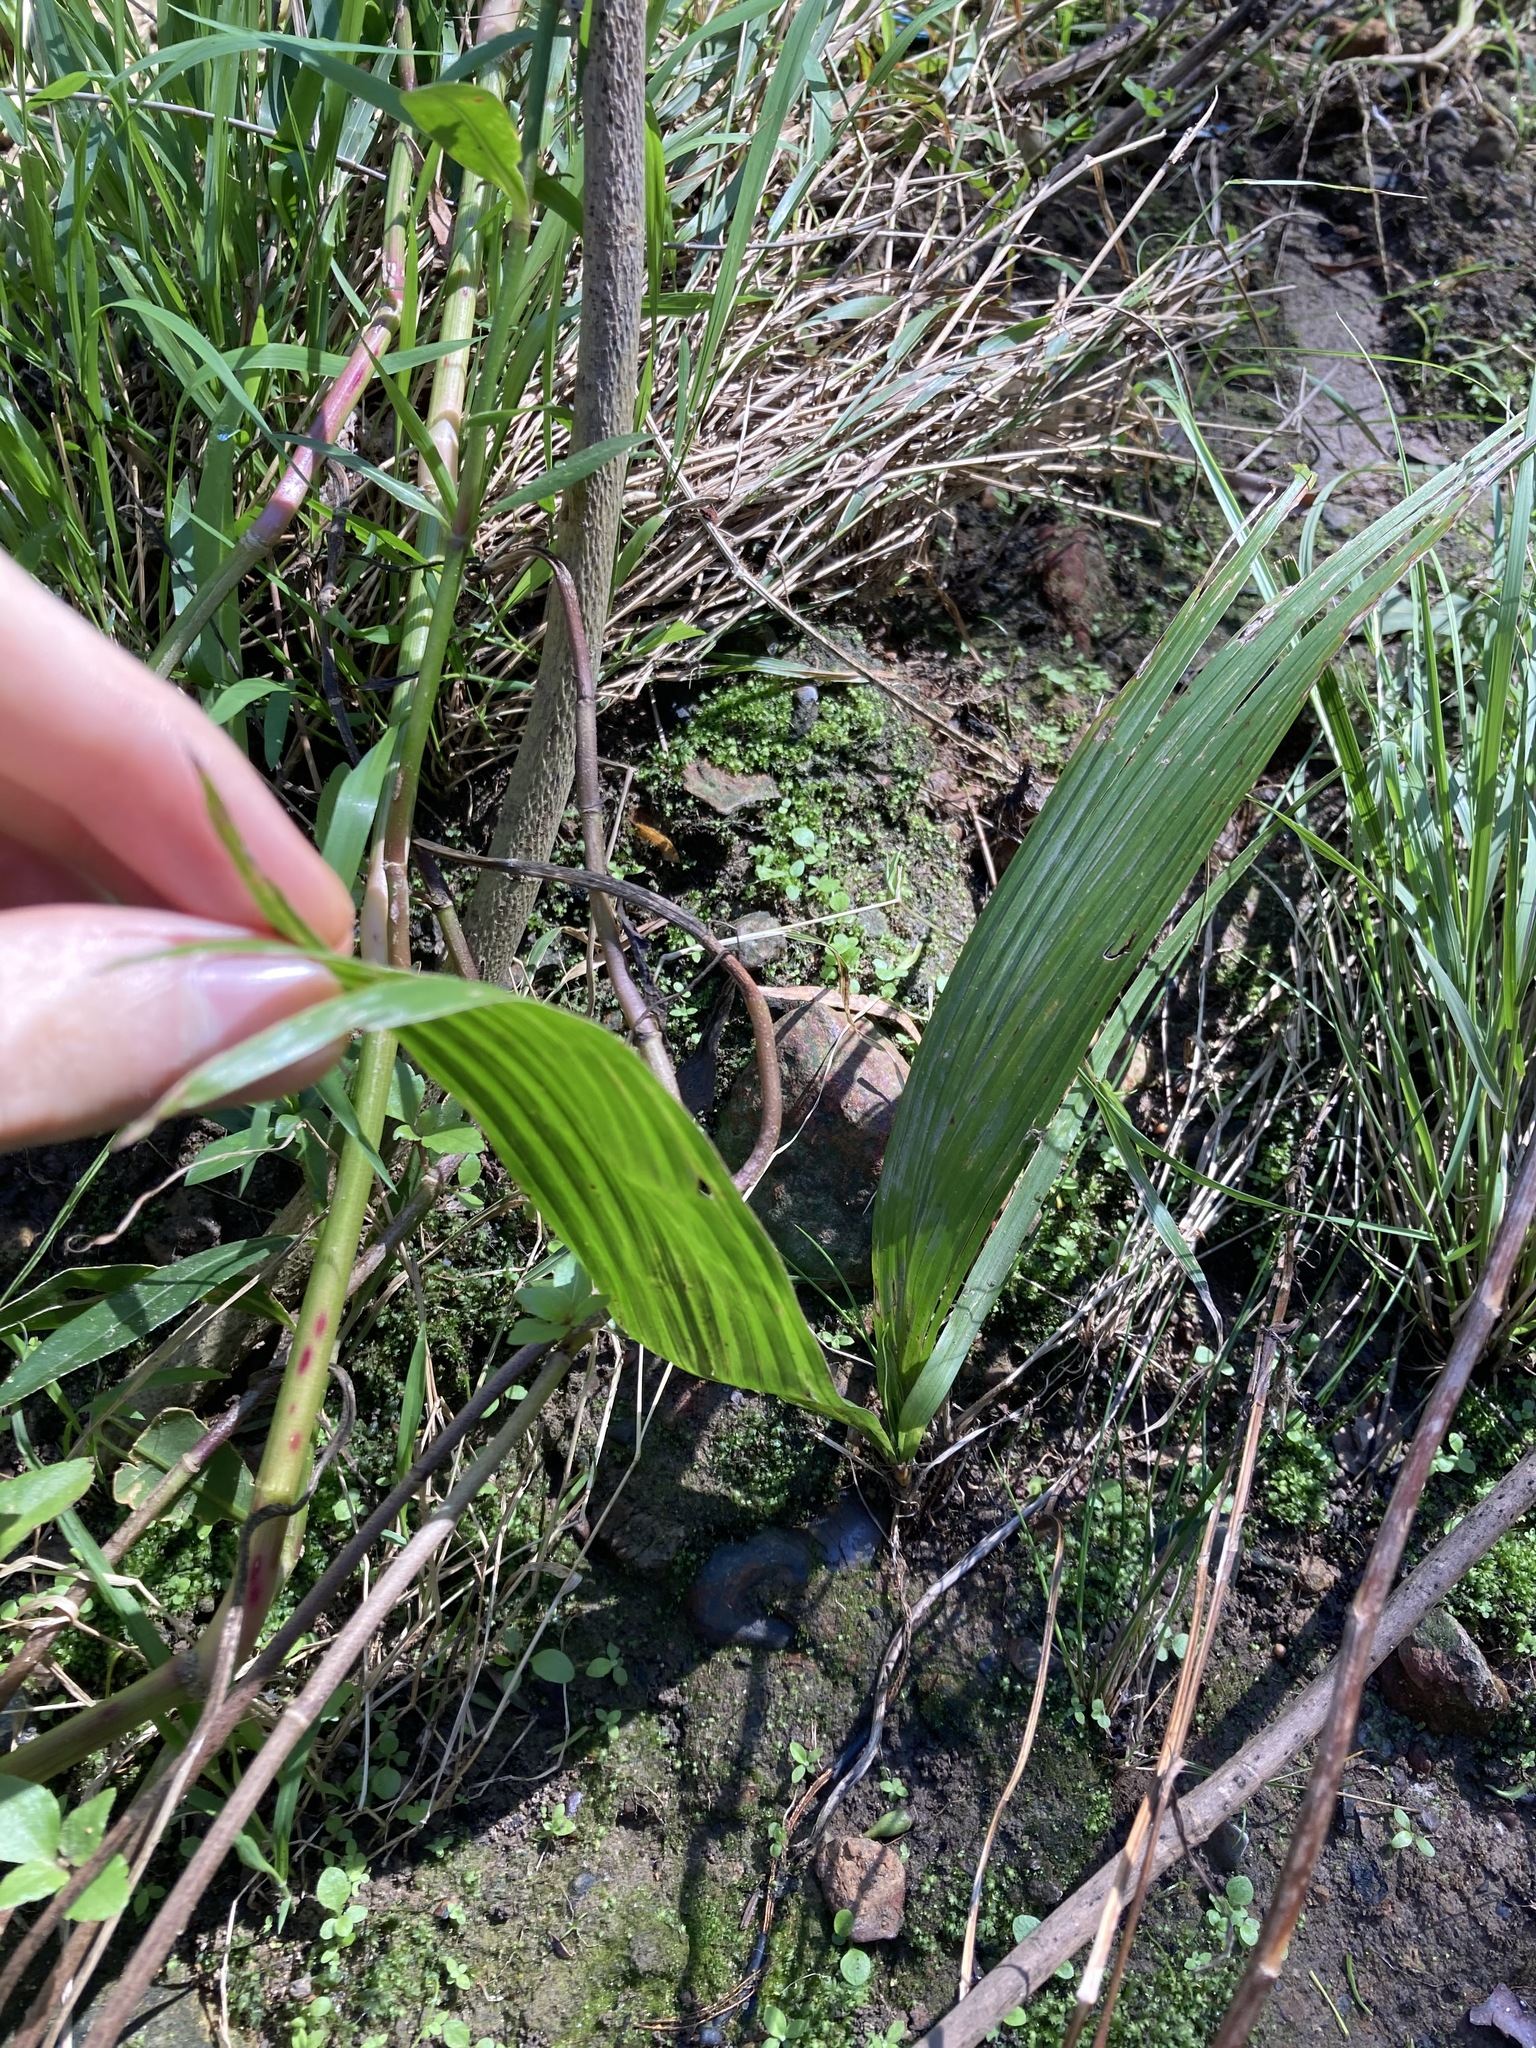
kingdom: Plantae
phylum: Tracheophyta
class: Liliopsida
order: Arecales
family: Arecaceae
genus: Syagrus
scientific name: Syagrus romanzoffiana
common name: Queen palm
